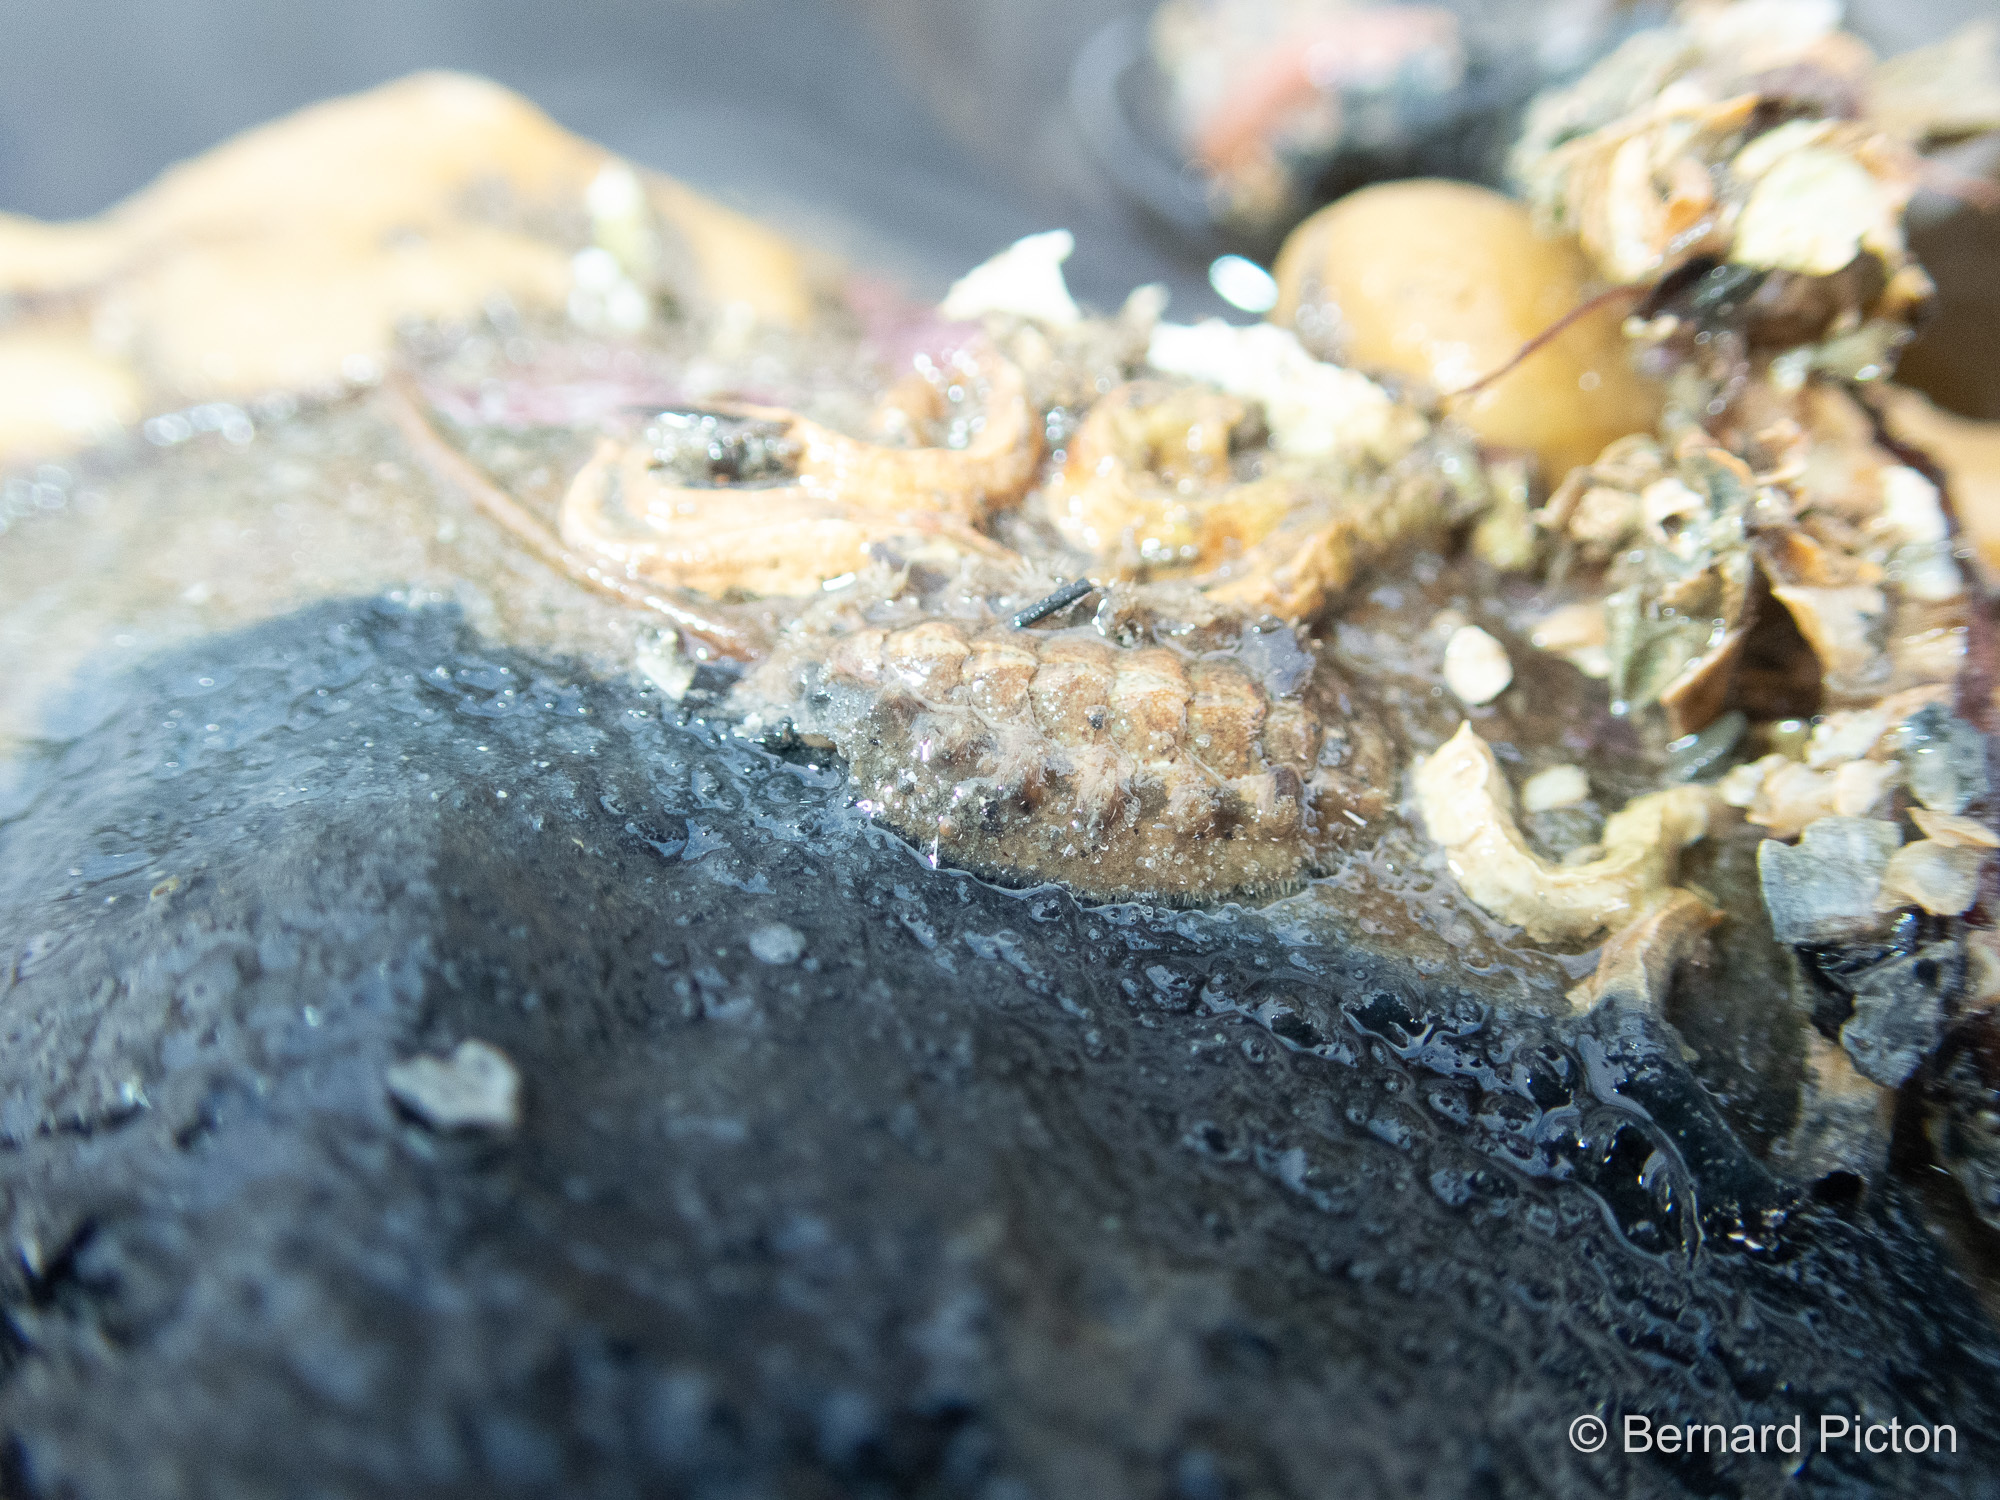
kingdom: Animalia
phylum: Mollusca
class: Polyplacophora
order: Chitonida
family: Acanthochitonidae
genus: Acanthochitona
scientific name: Acanthochitona crinita
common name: Bristly mail chiton
